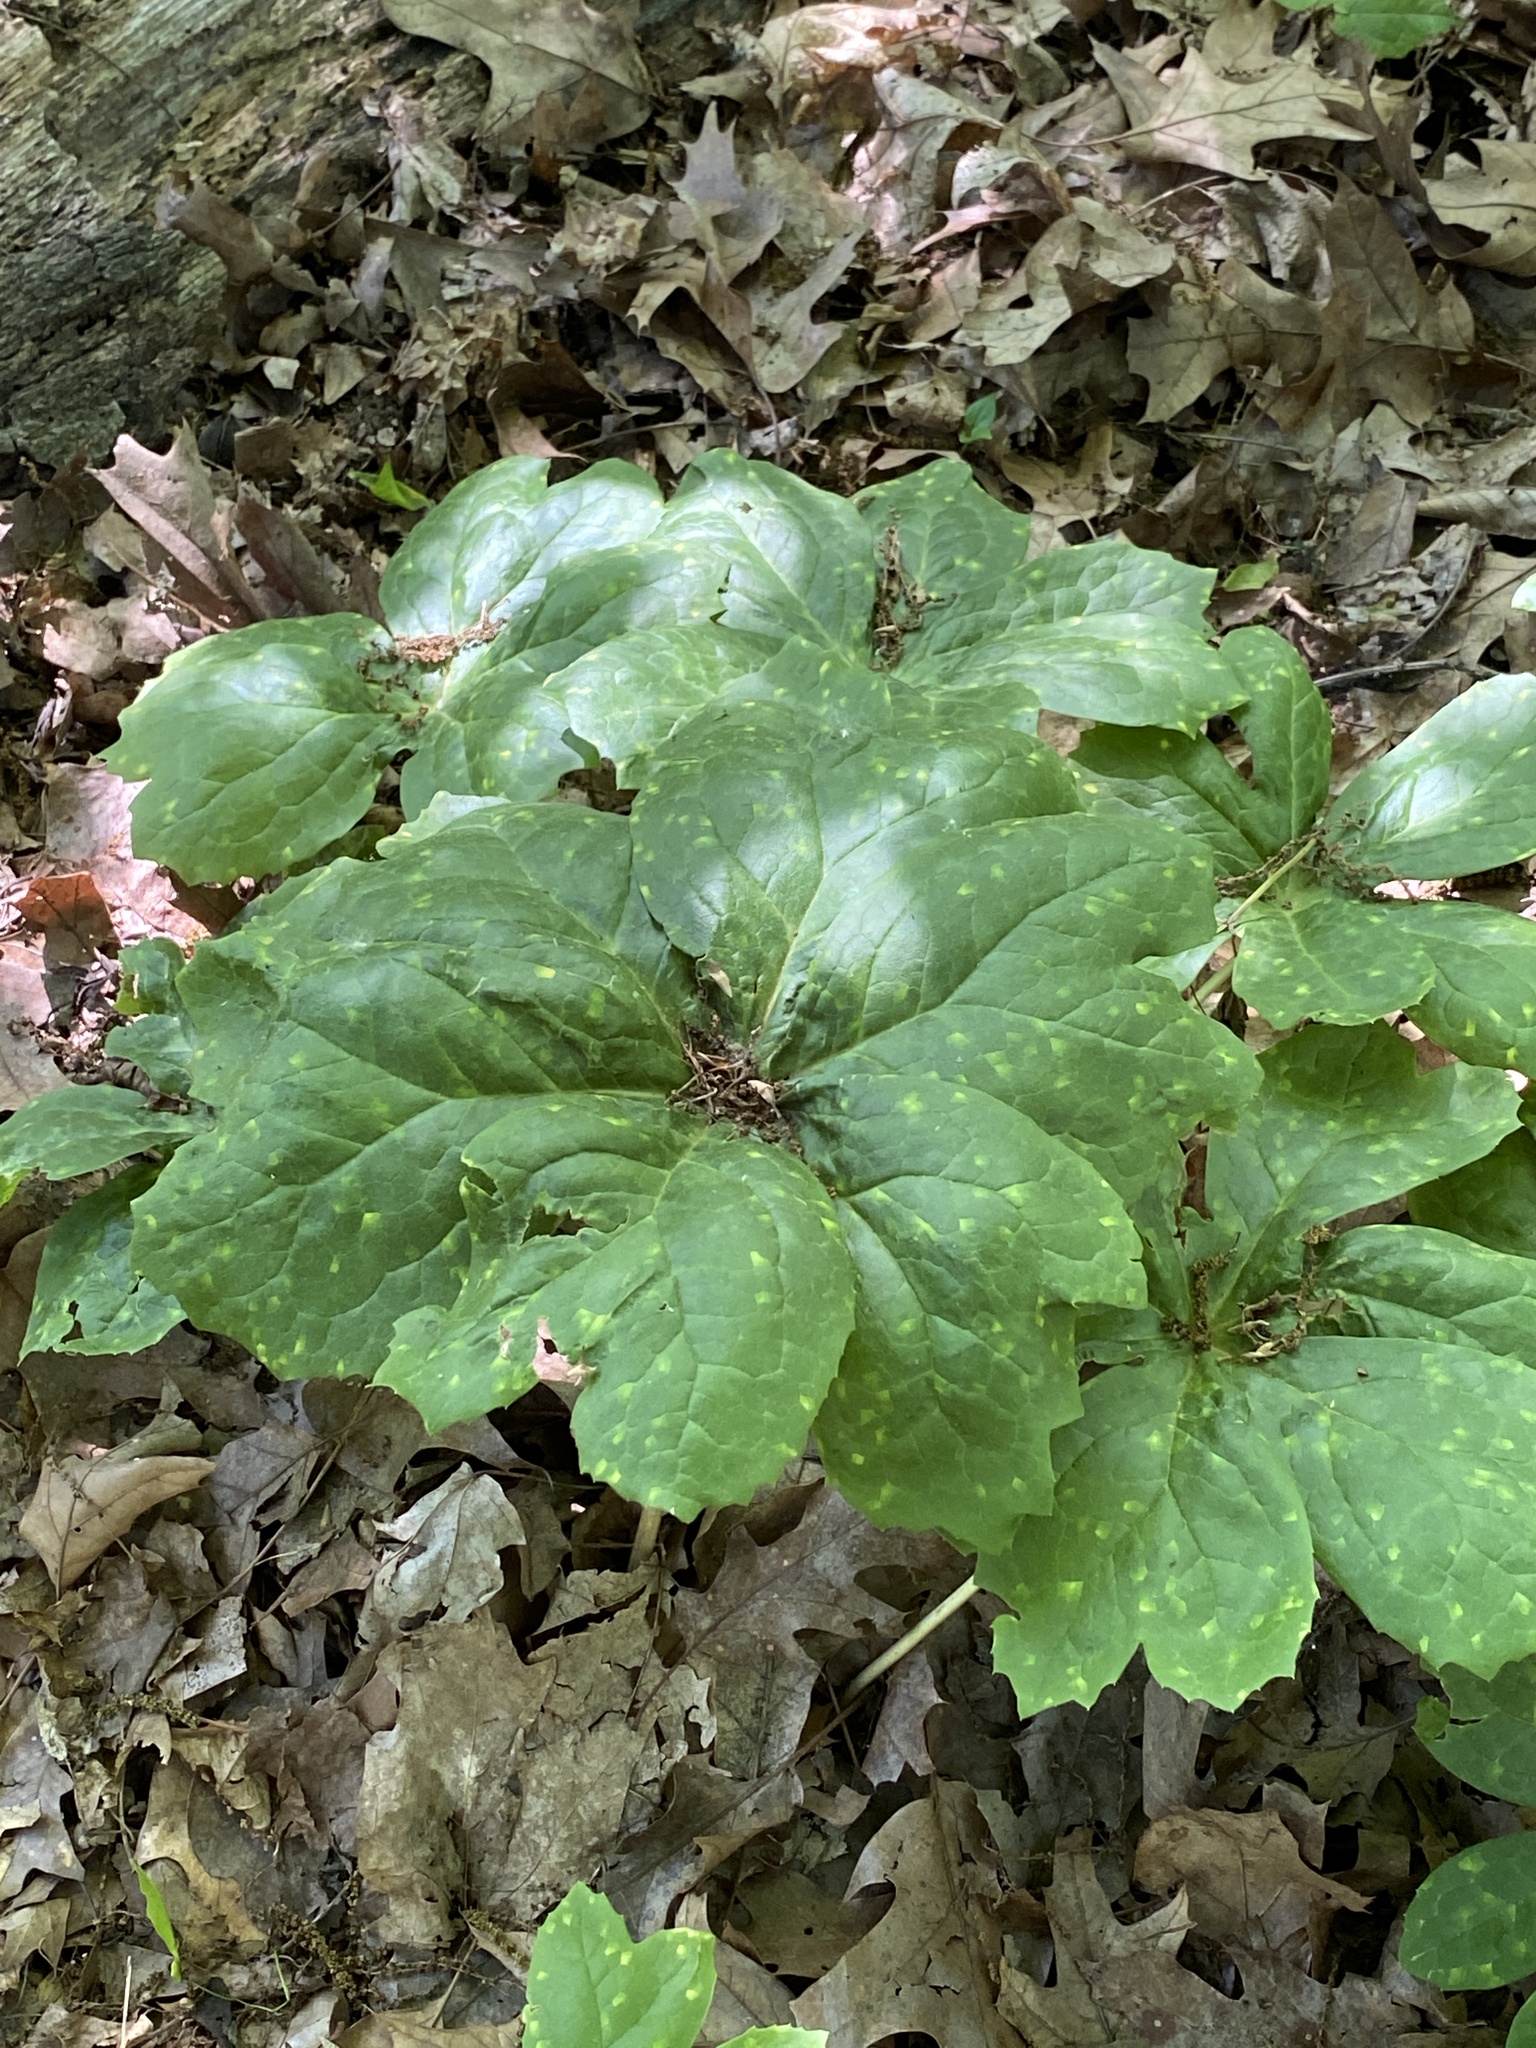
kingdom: Plantae
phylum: Tracheophyta
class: Magnoliopsida
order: Ranunculales
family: Berberidaceae
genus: Podophyllum
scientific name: Podophyllum peltatum
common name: Wild mandrake
